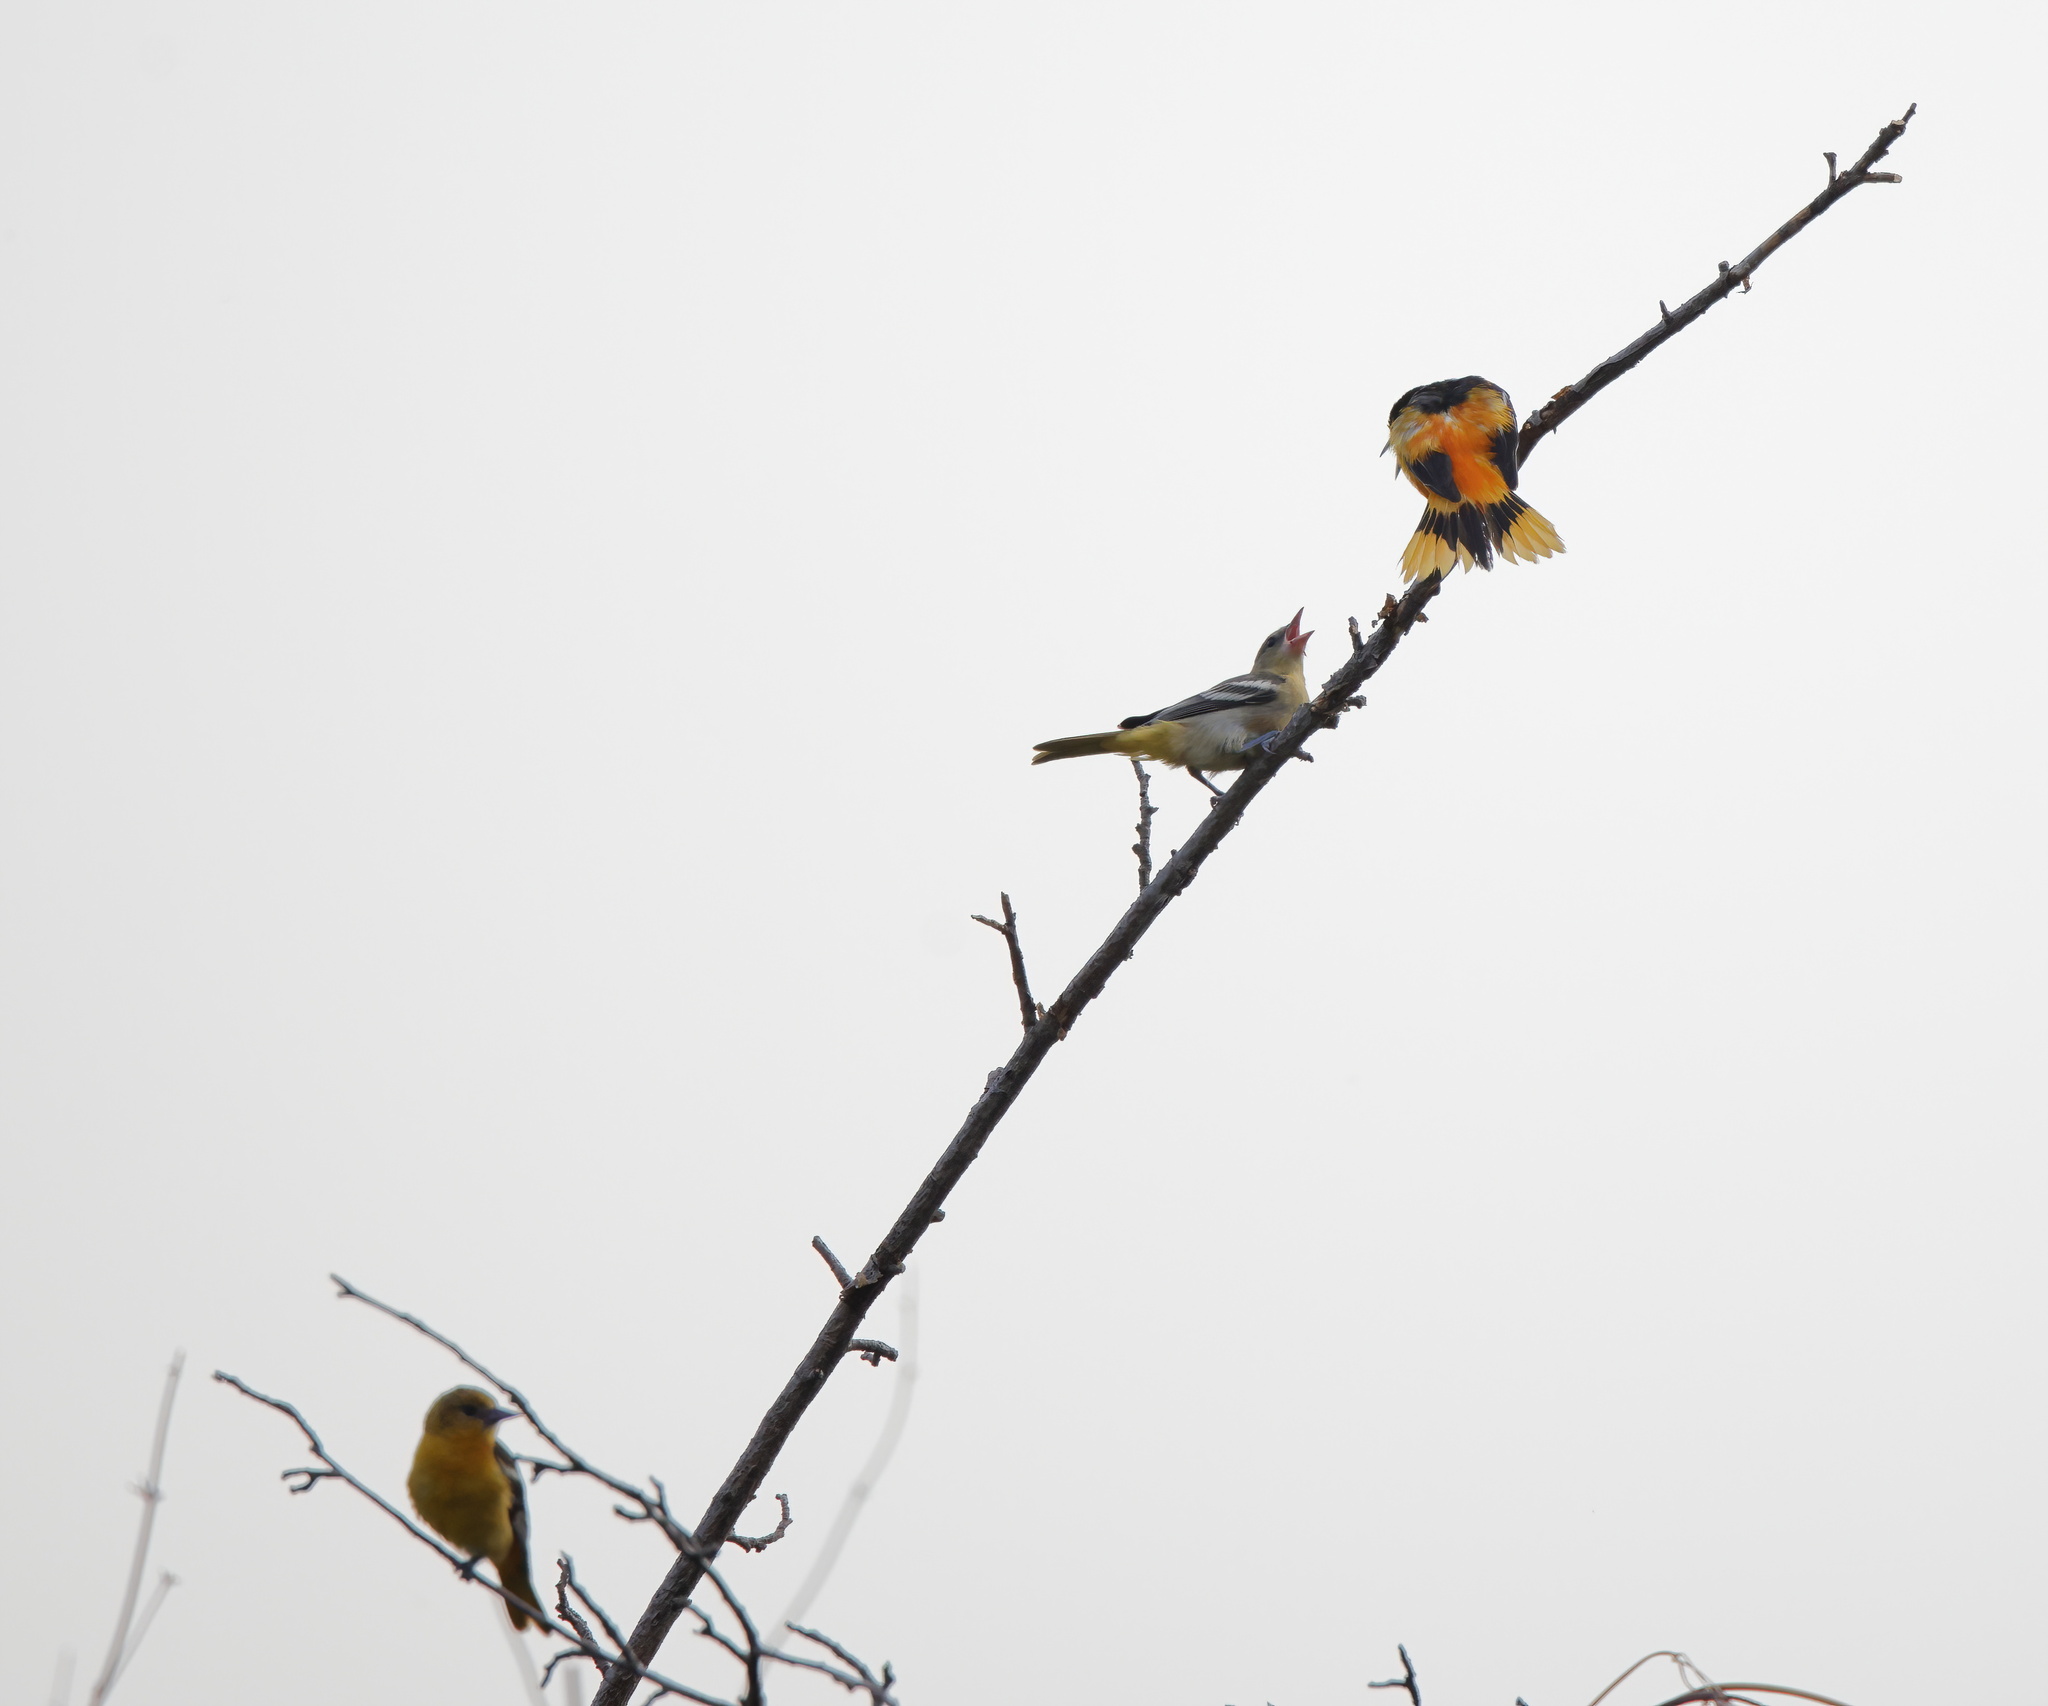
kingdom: Animalia
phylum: Chordata
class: Aves
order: Passeriformes
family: Icteridae
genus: Icterus
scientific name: Icterus galbula
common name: Baltimore oriole
